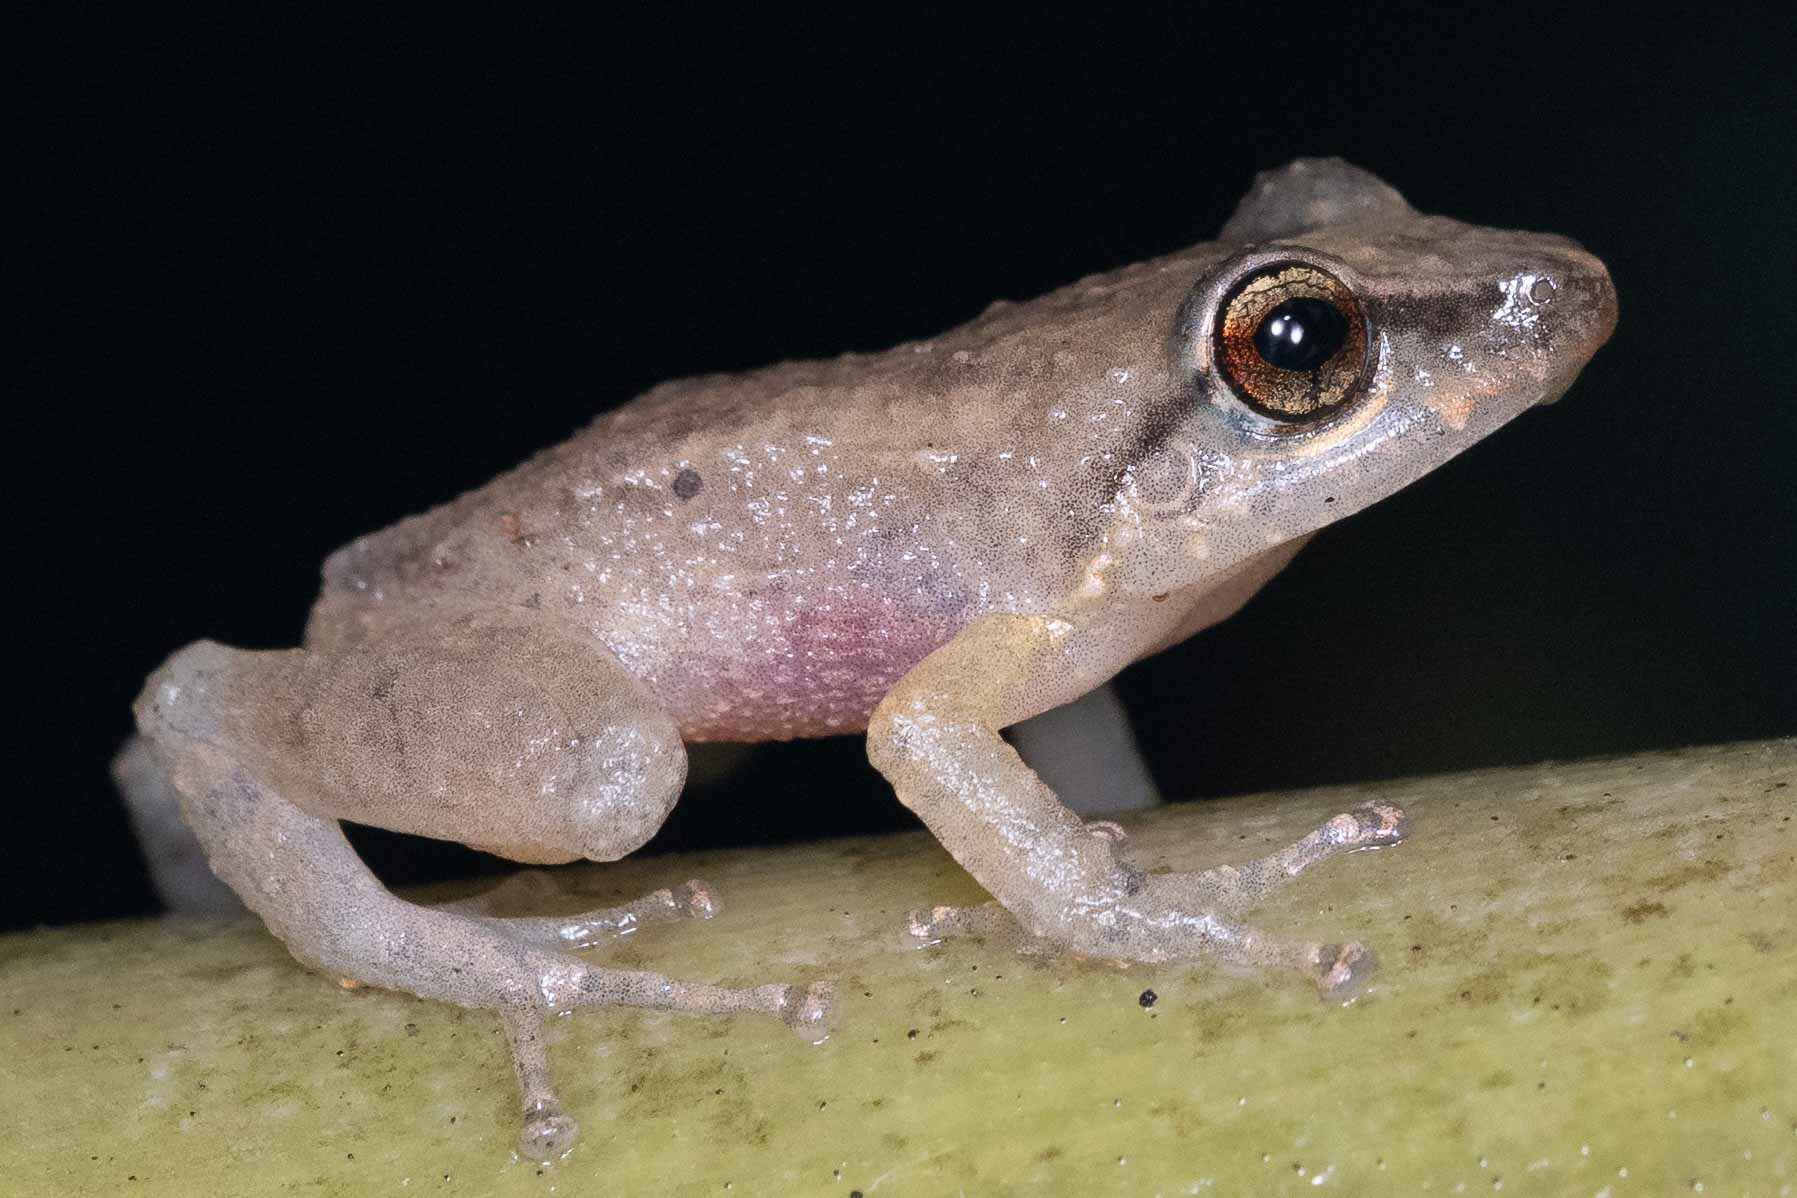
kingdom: Animalia
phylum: Chordata
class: Amphibia
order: Anura
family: Eleutherodactylidae
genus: Eleutherodactylus
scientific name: Eleutherodactylus coqui
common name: Coqui frog
